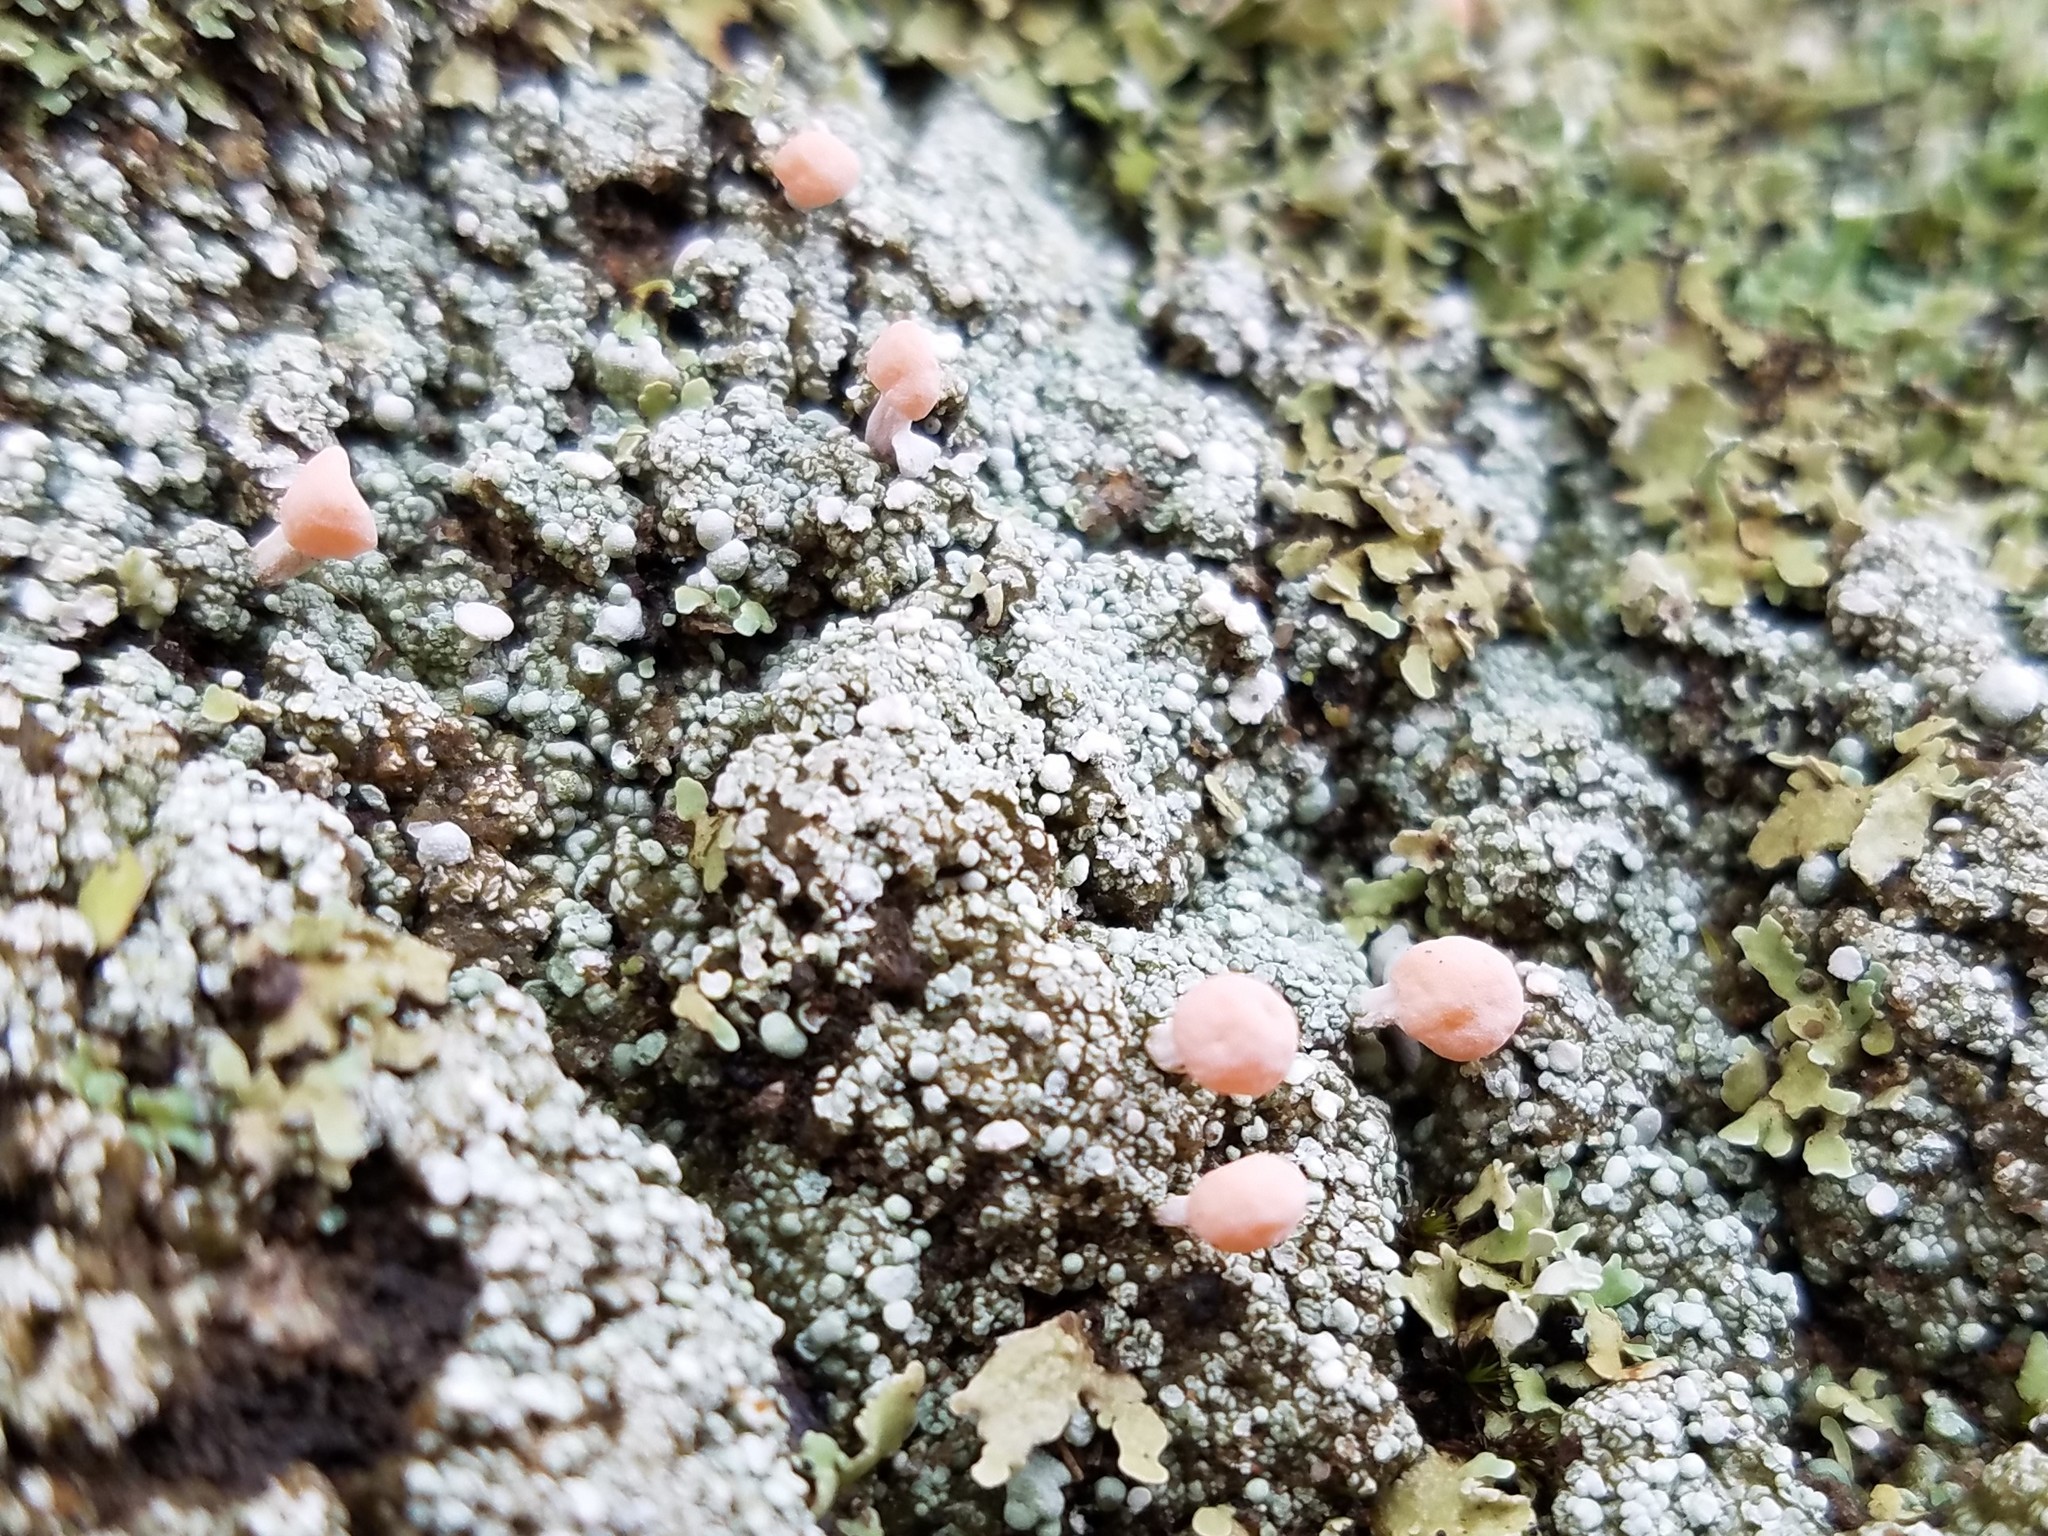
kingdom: Fungi
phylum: Ascomycota
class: Lecanoromycetes
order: Pertusariales
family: Icmadophilaceae
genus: Dibaeis
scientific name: Dibaeis baeomyces
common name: Pink earth lichen
